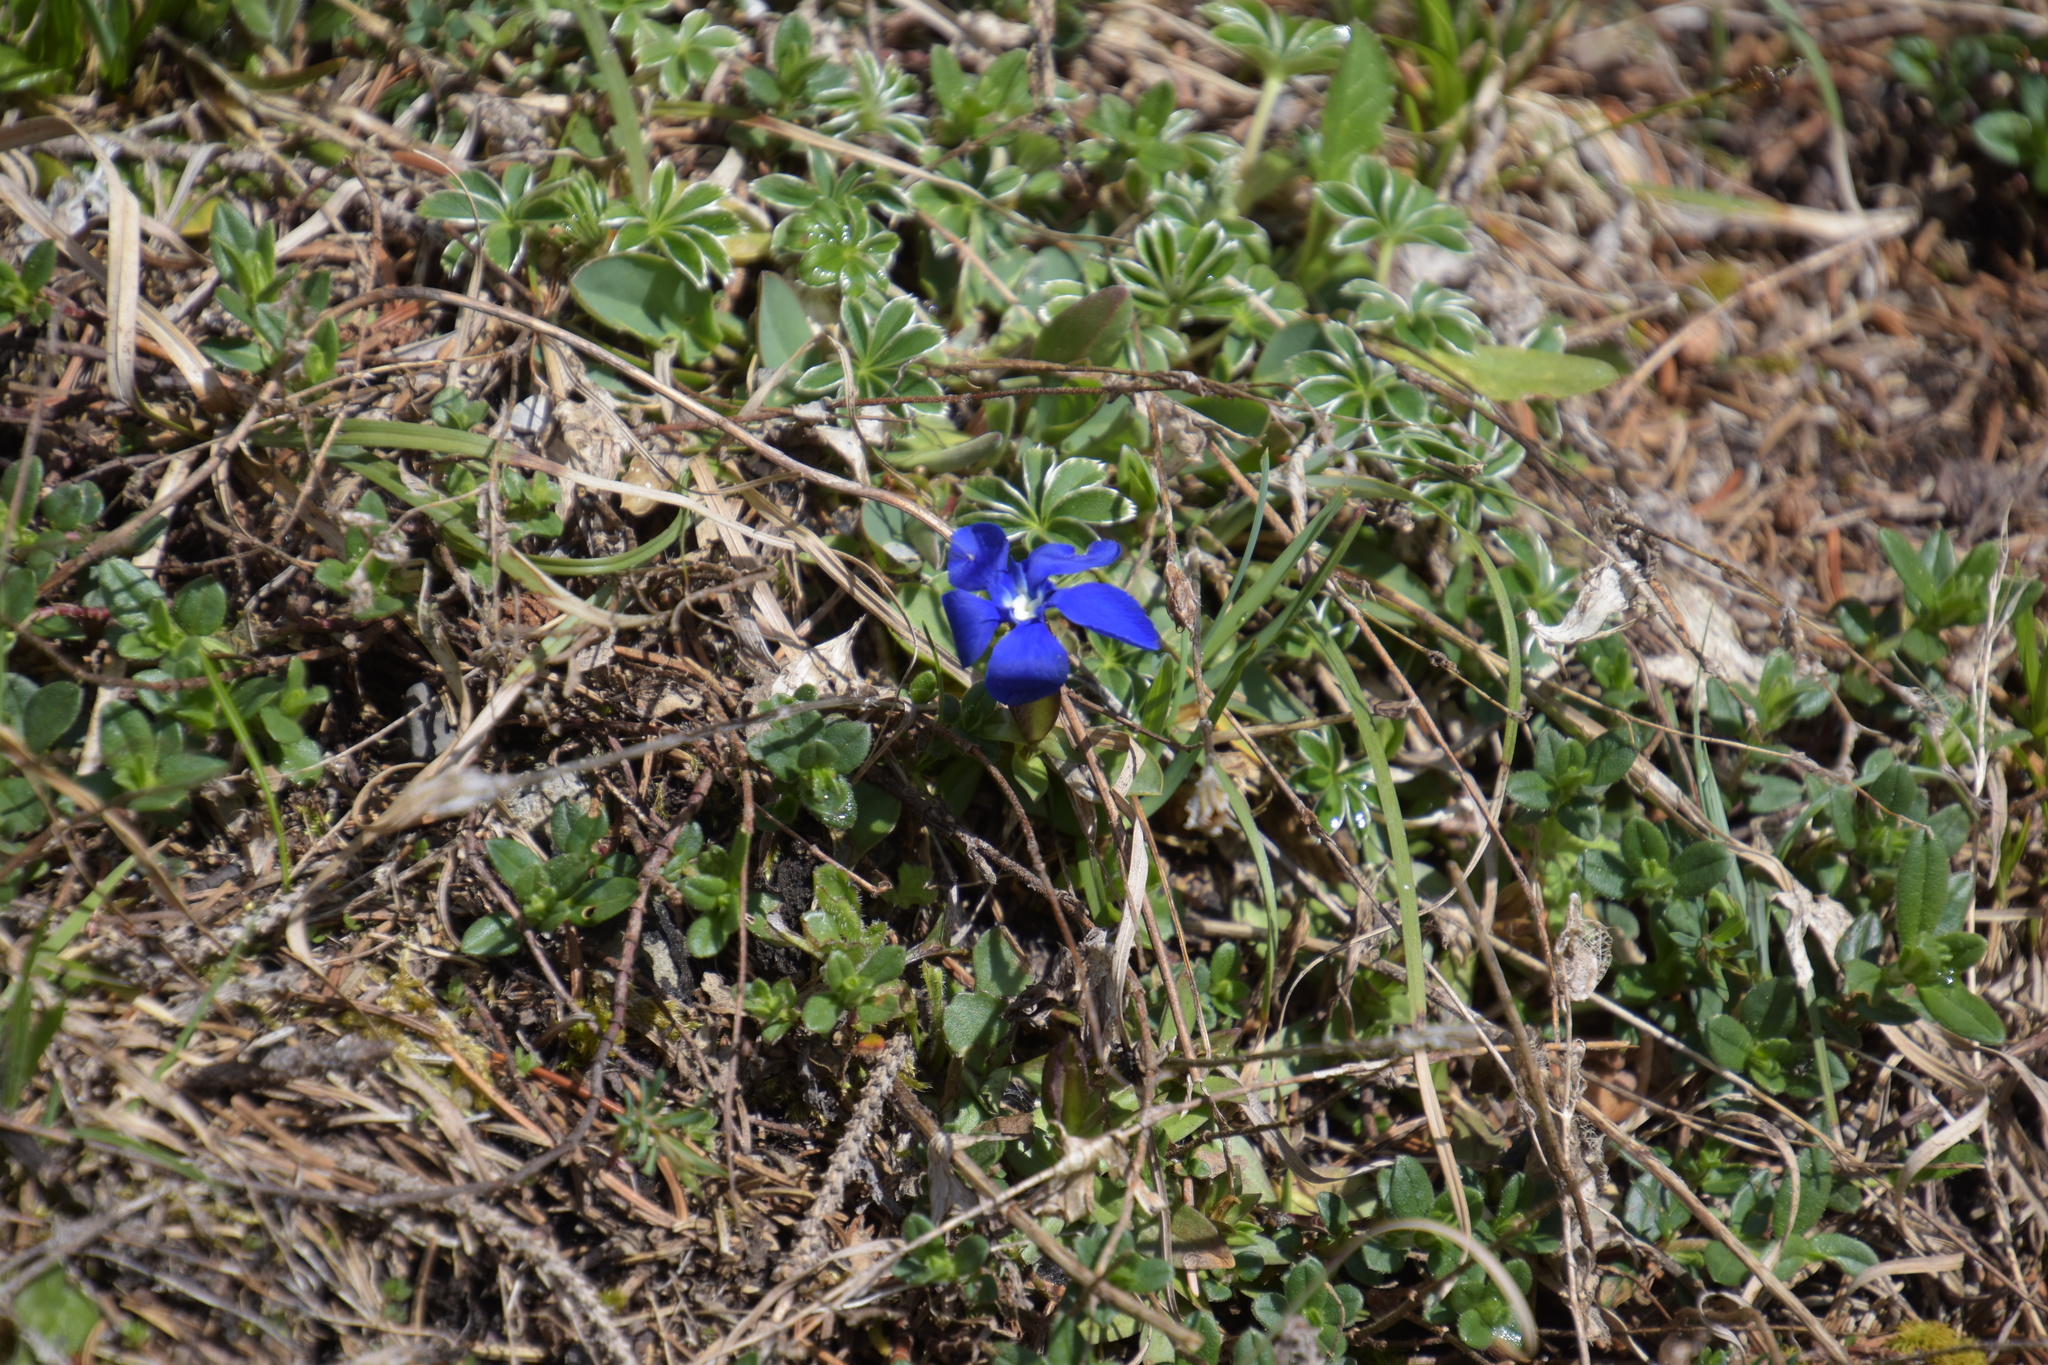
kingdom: Plantae
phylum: Tracheophyta
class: Magnoliopsida
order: Gentianales
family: Gentianaceae
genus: Gentiana
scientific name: Gentiana verna
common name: Spring gentian
